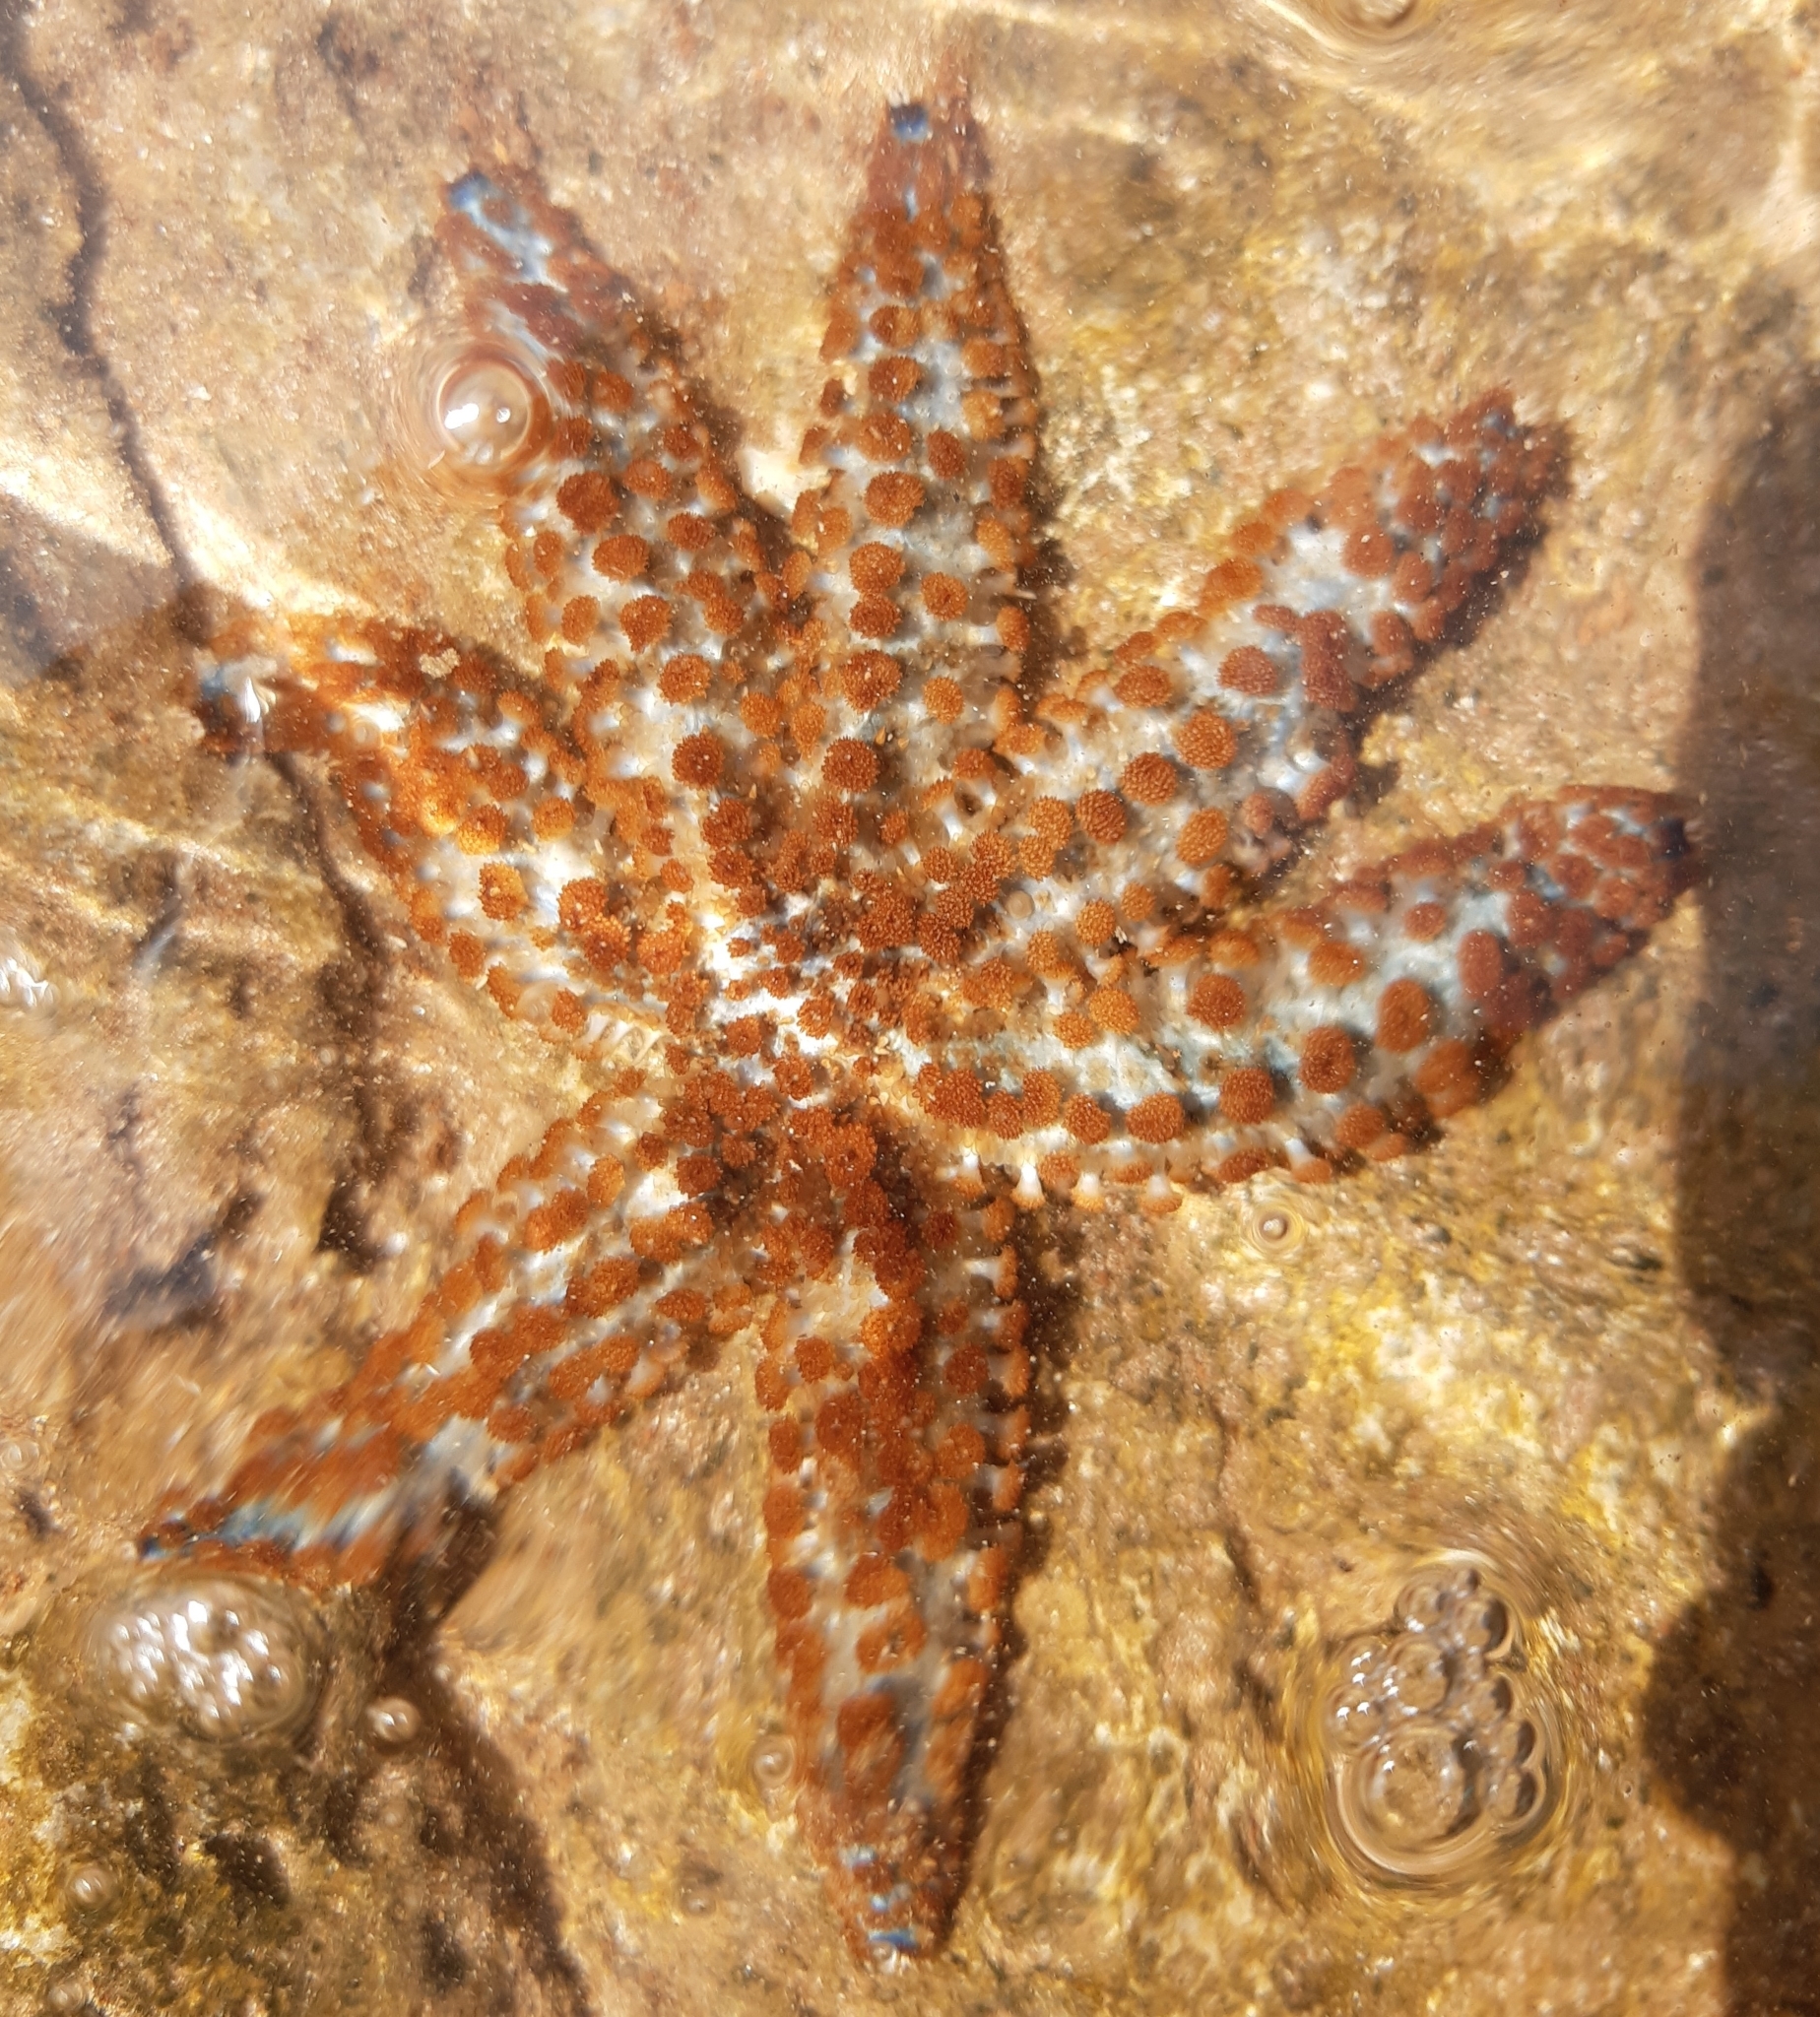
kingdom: Animalia
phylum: Echinodermata
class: Asteroidea
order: Forcipulatida
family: Asteriidae
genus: Coscinasterias
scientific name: Coscinasterias tenuispina
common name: Blue spiny starfish
